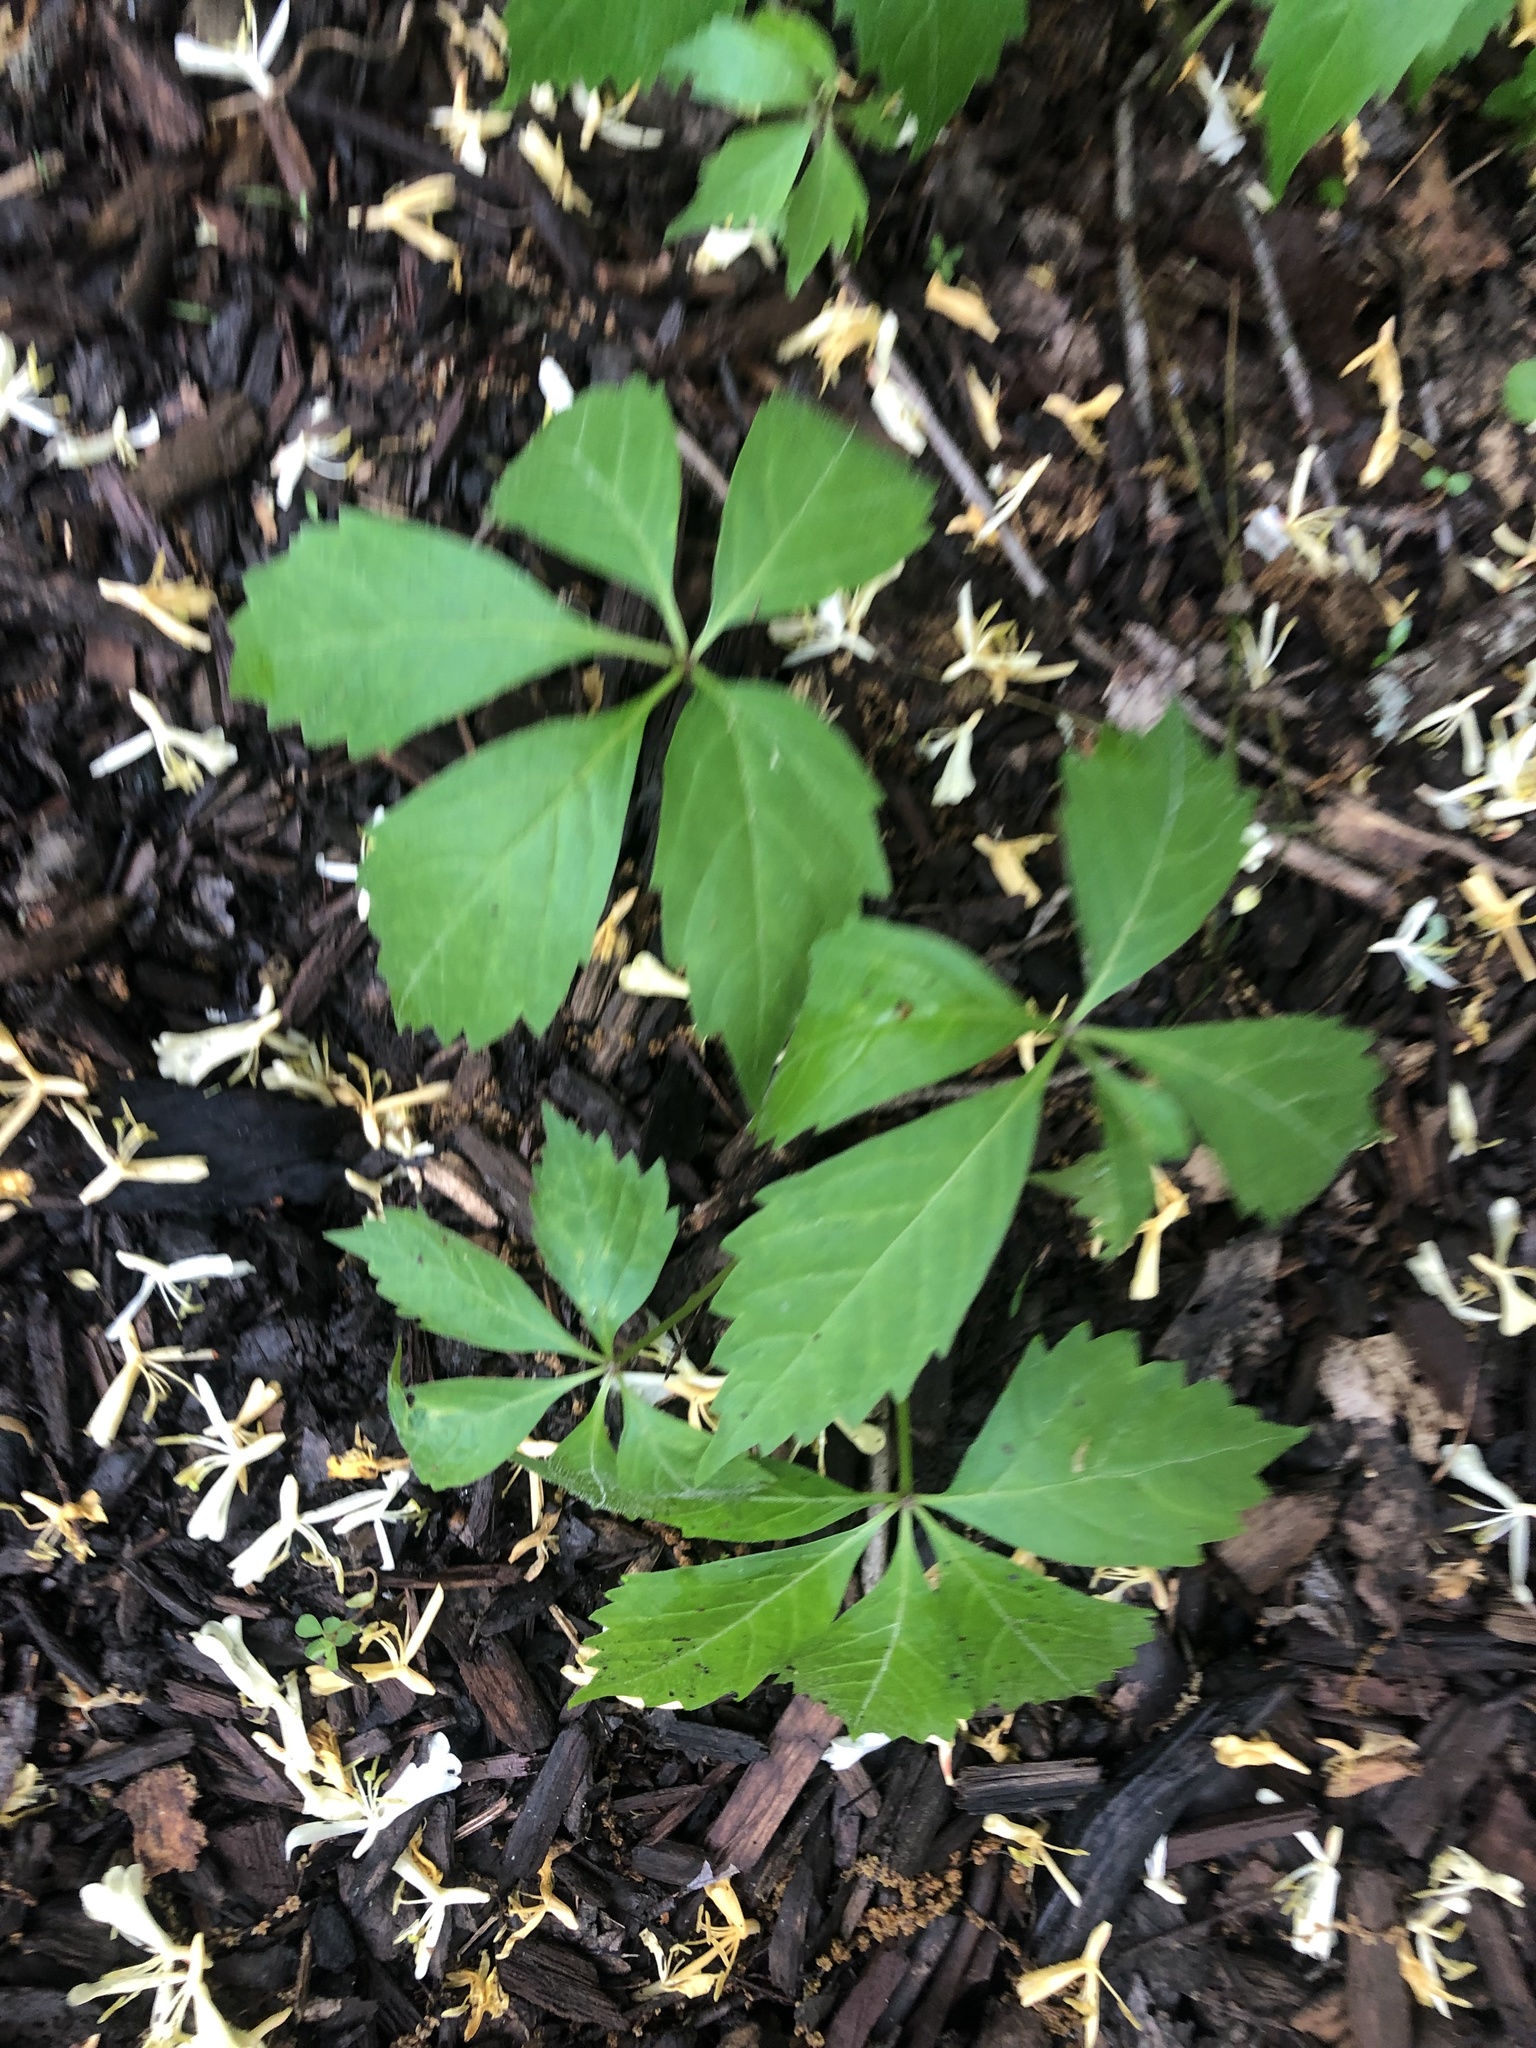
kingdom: Plantae
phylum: Tracheophyta
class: Magnoliopsida
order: Vitales
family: Vitaceae
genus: Parthenocissus
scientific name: Parthenocissus quinquefolia
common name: Virginia-creeper
